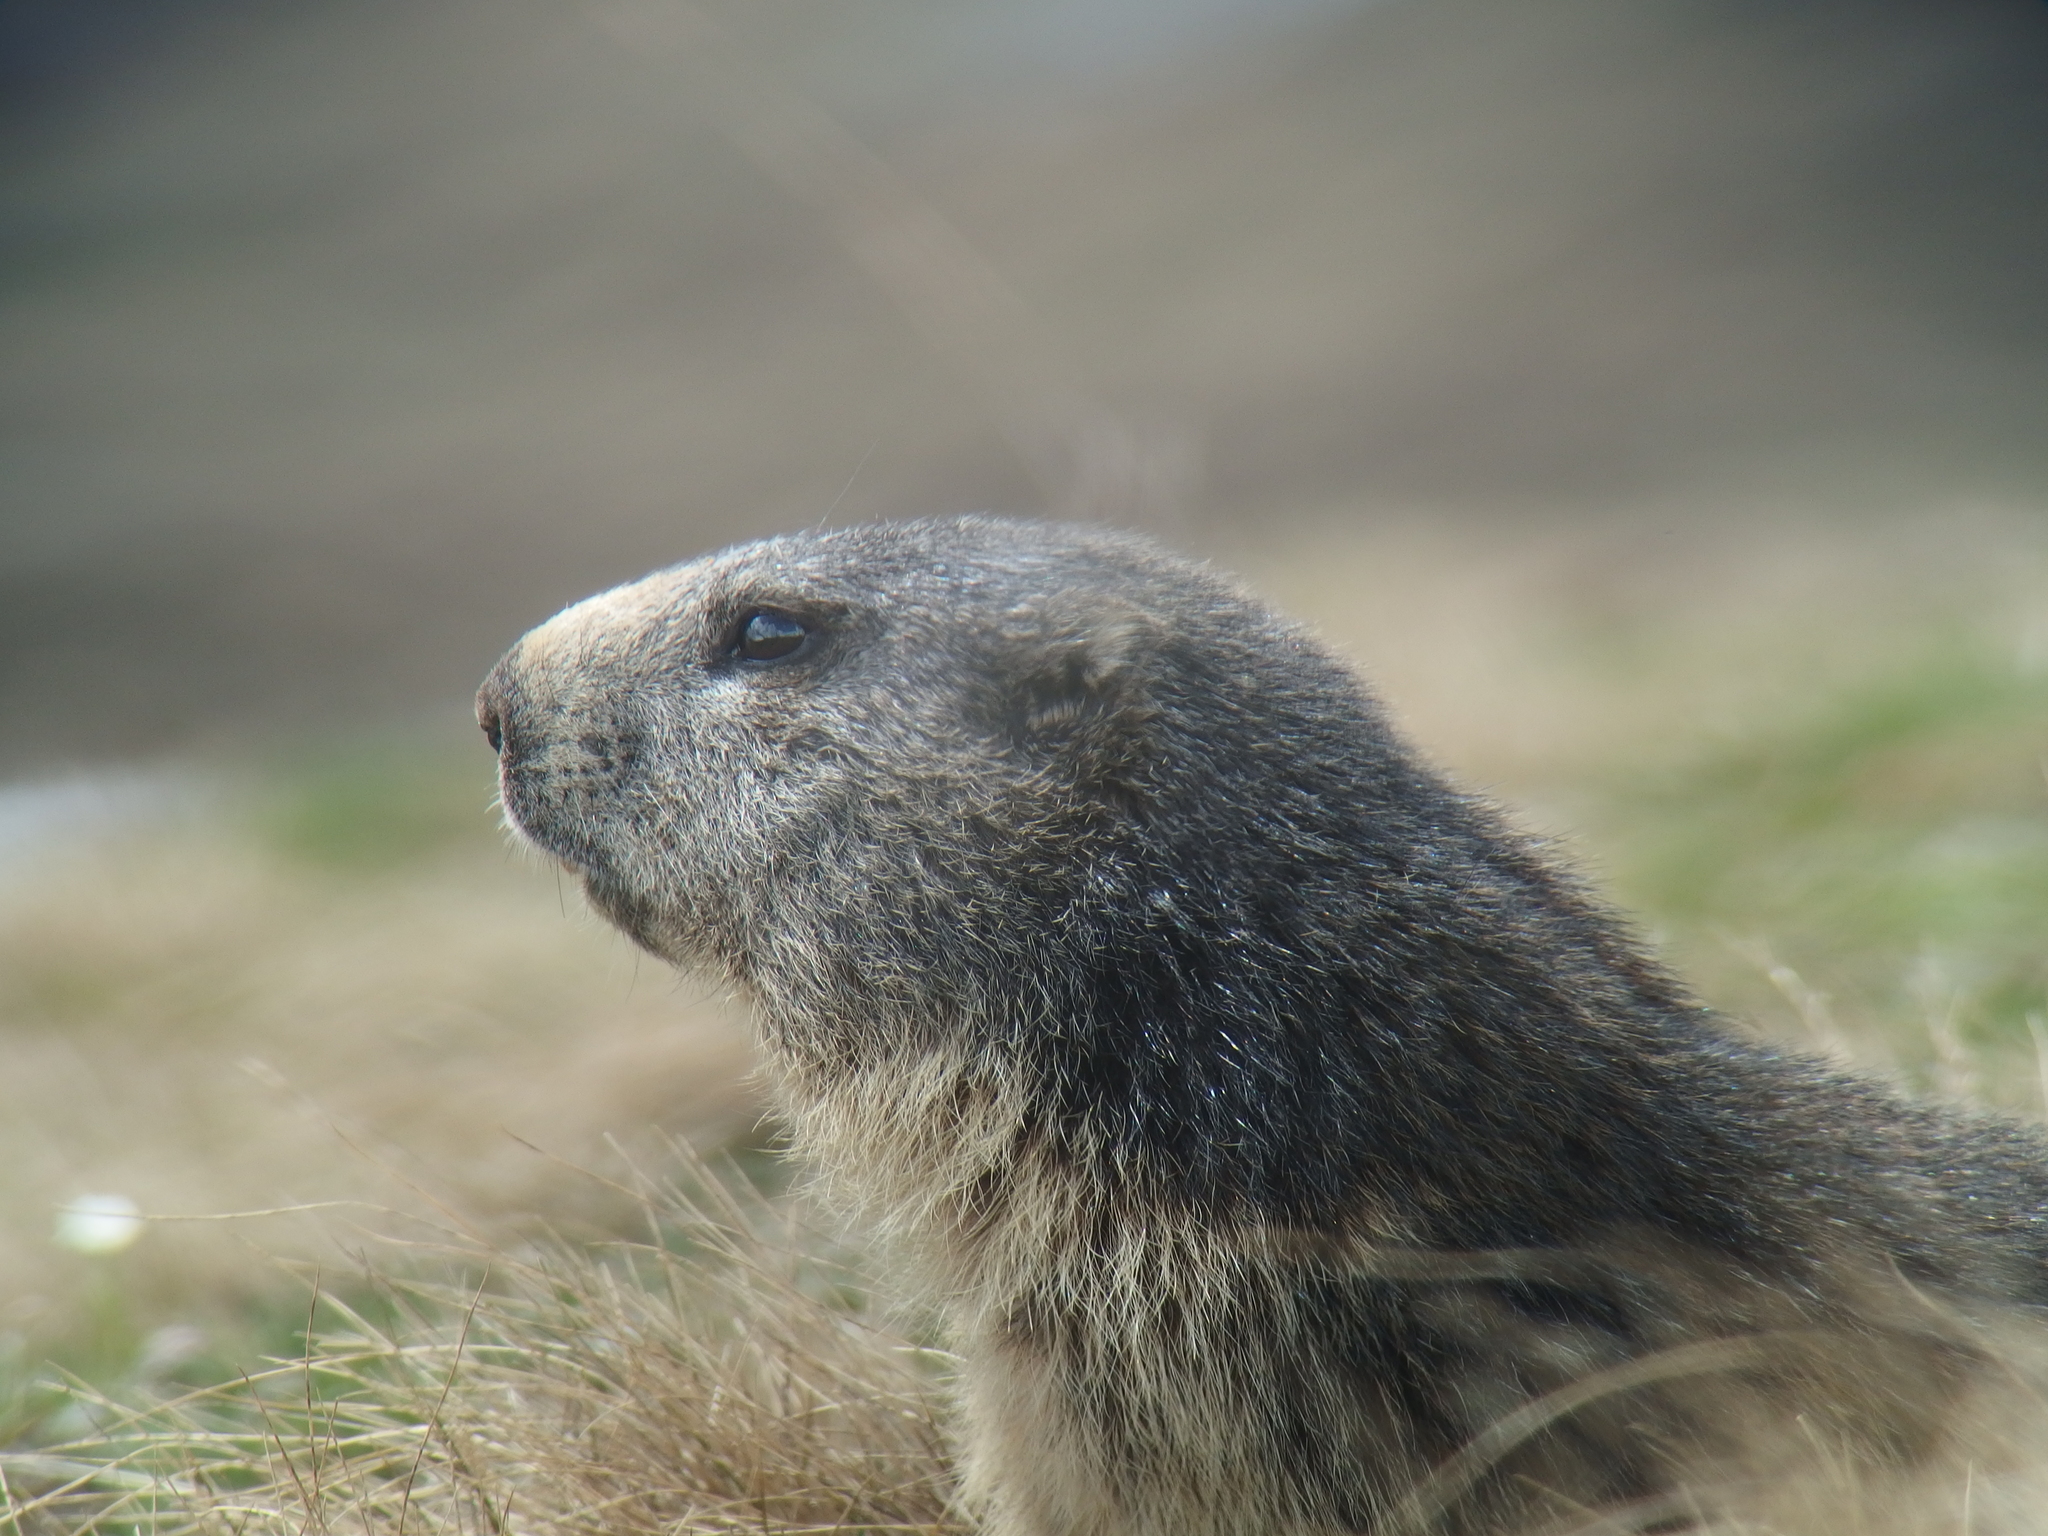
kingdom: Animalia
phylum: Chordata
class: Mammalia
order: Rodentia
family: Sciuridae
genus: Marmota
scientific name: Marmota marmota
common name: Alpine marmot
